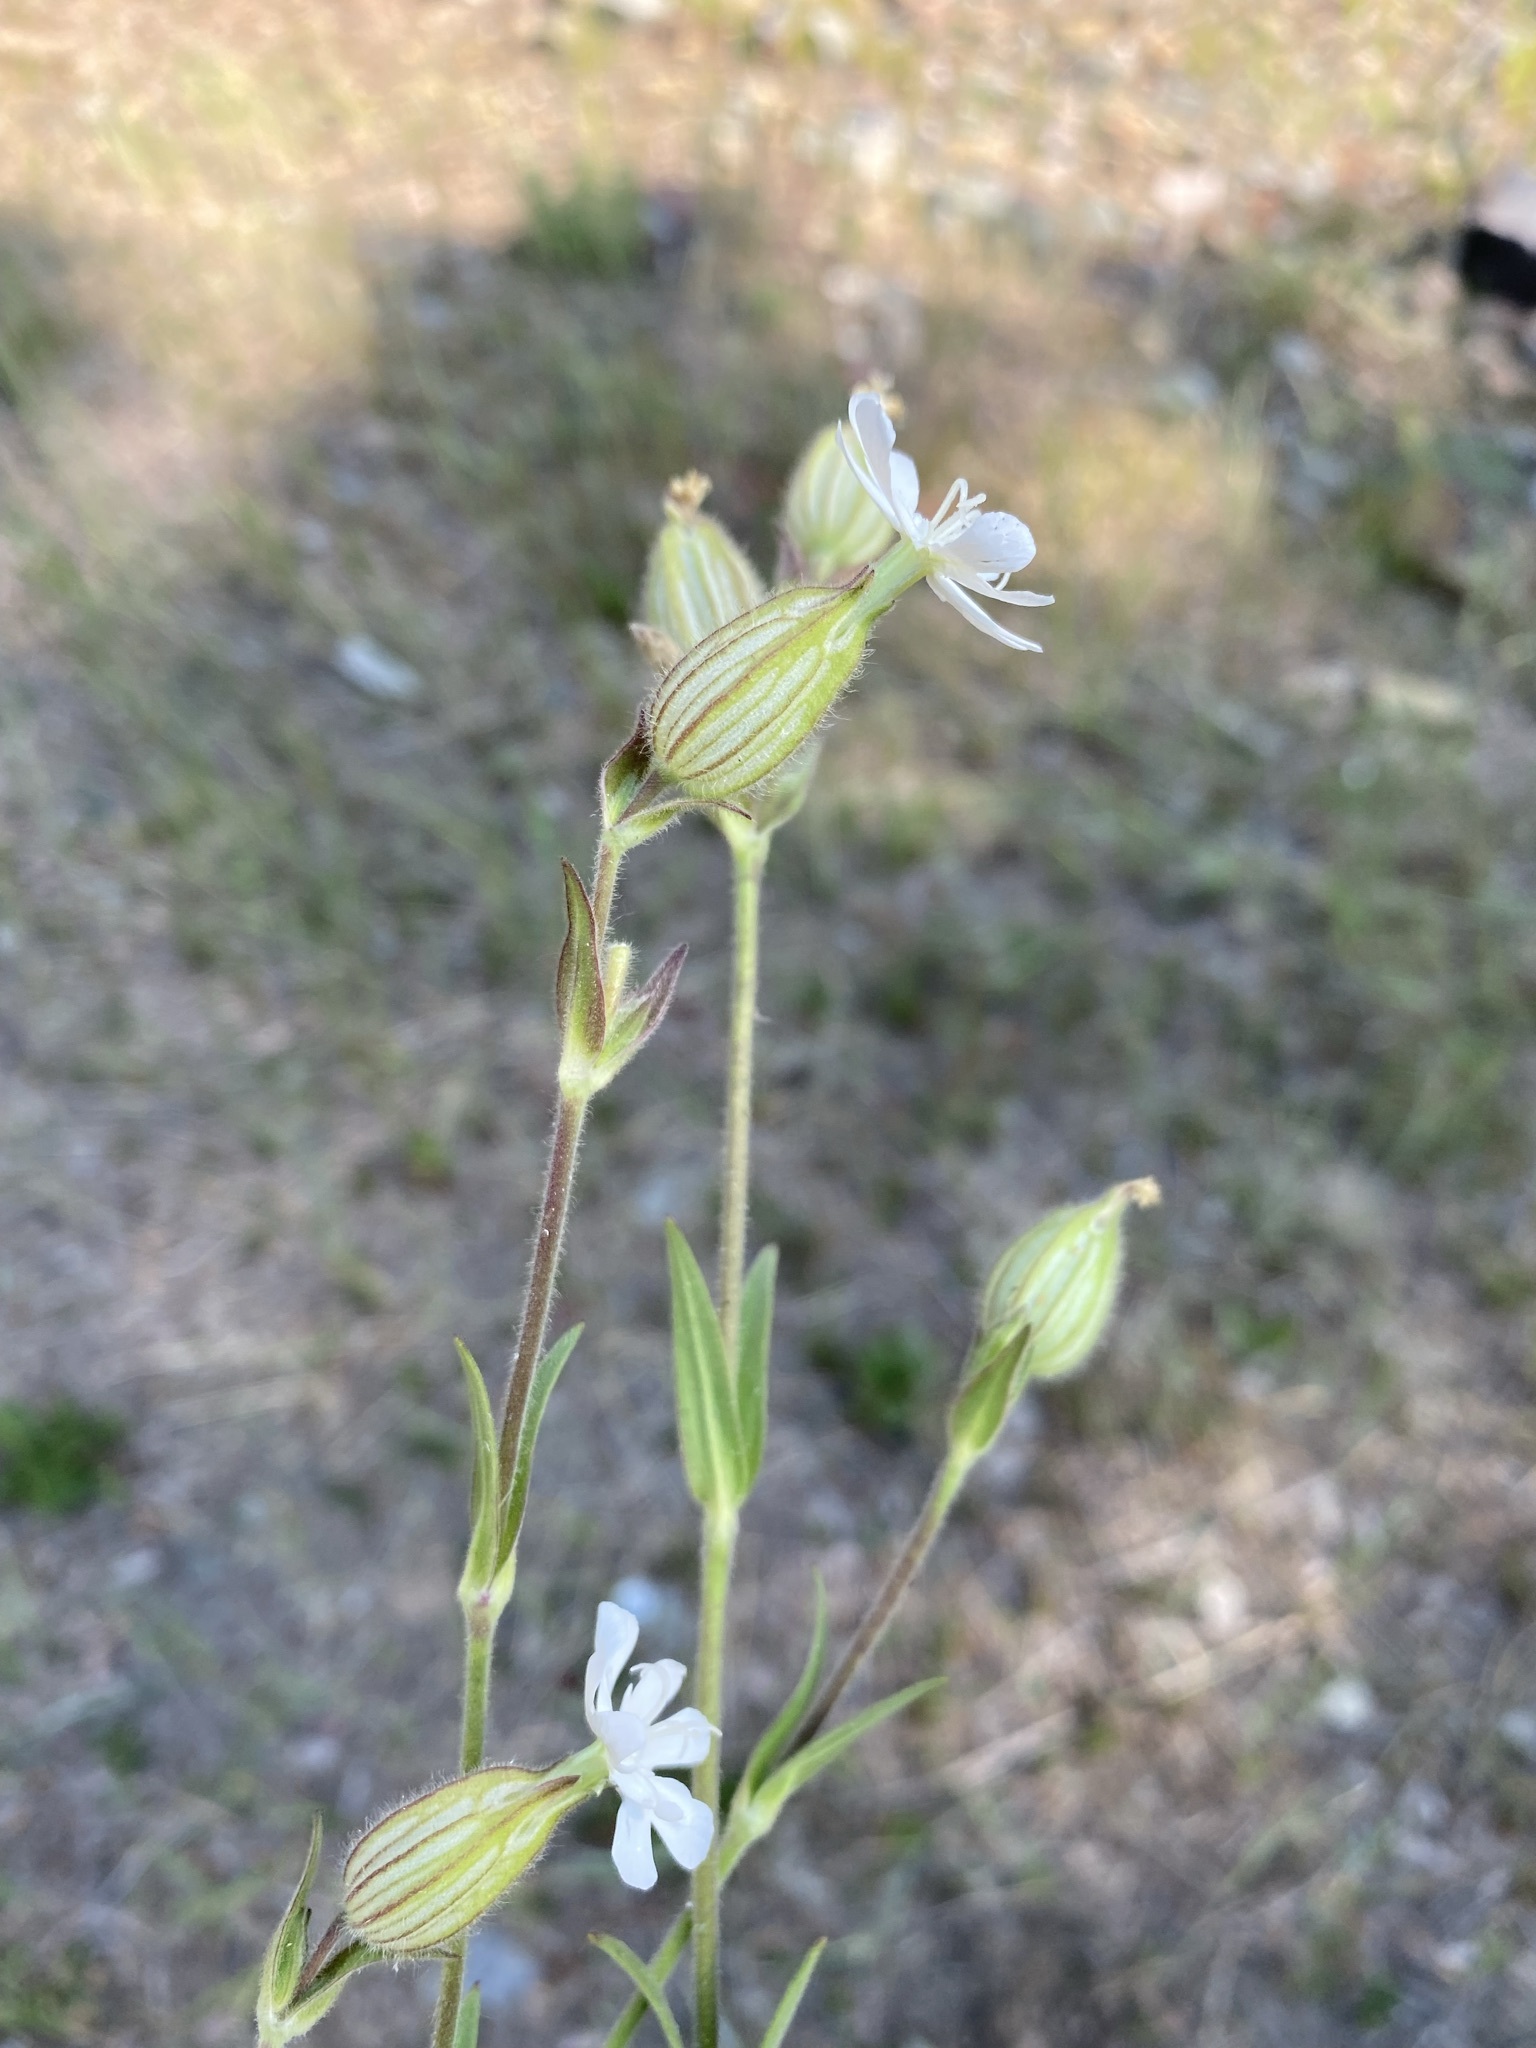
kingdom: Plantae
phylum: Tracheophyta
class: Magnoliopsida
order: Caryophyllales
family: Caryophyllaceae
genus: Silene
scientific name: Silene latifolia
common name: White campion
